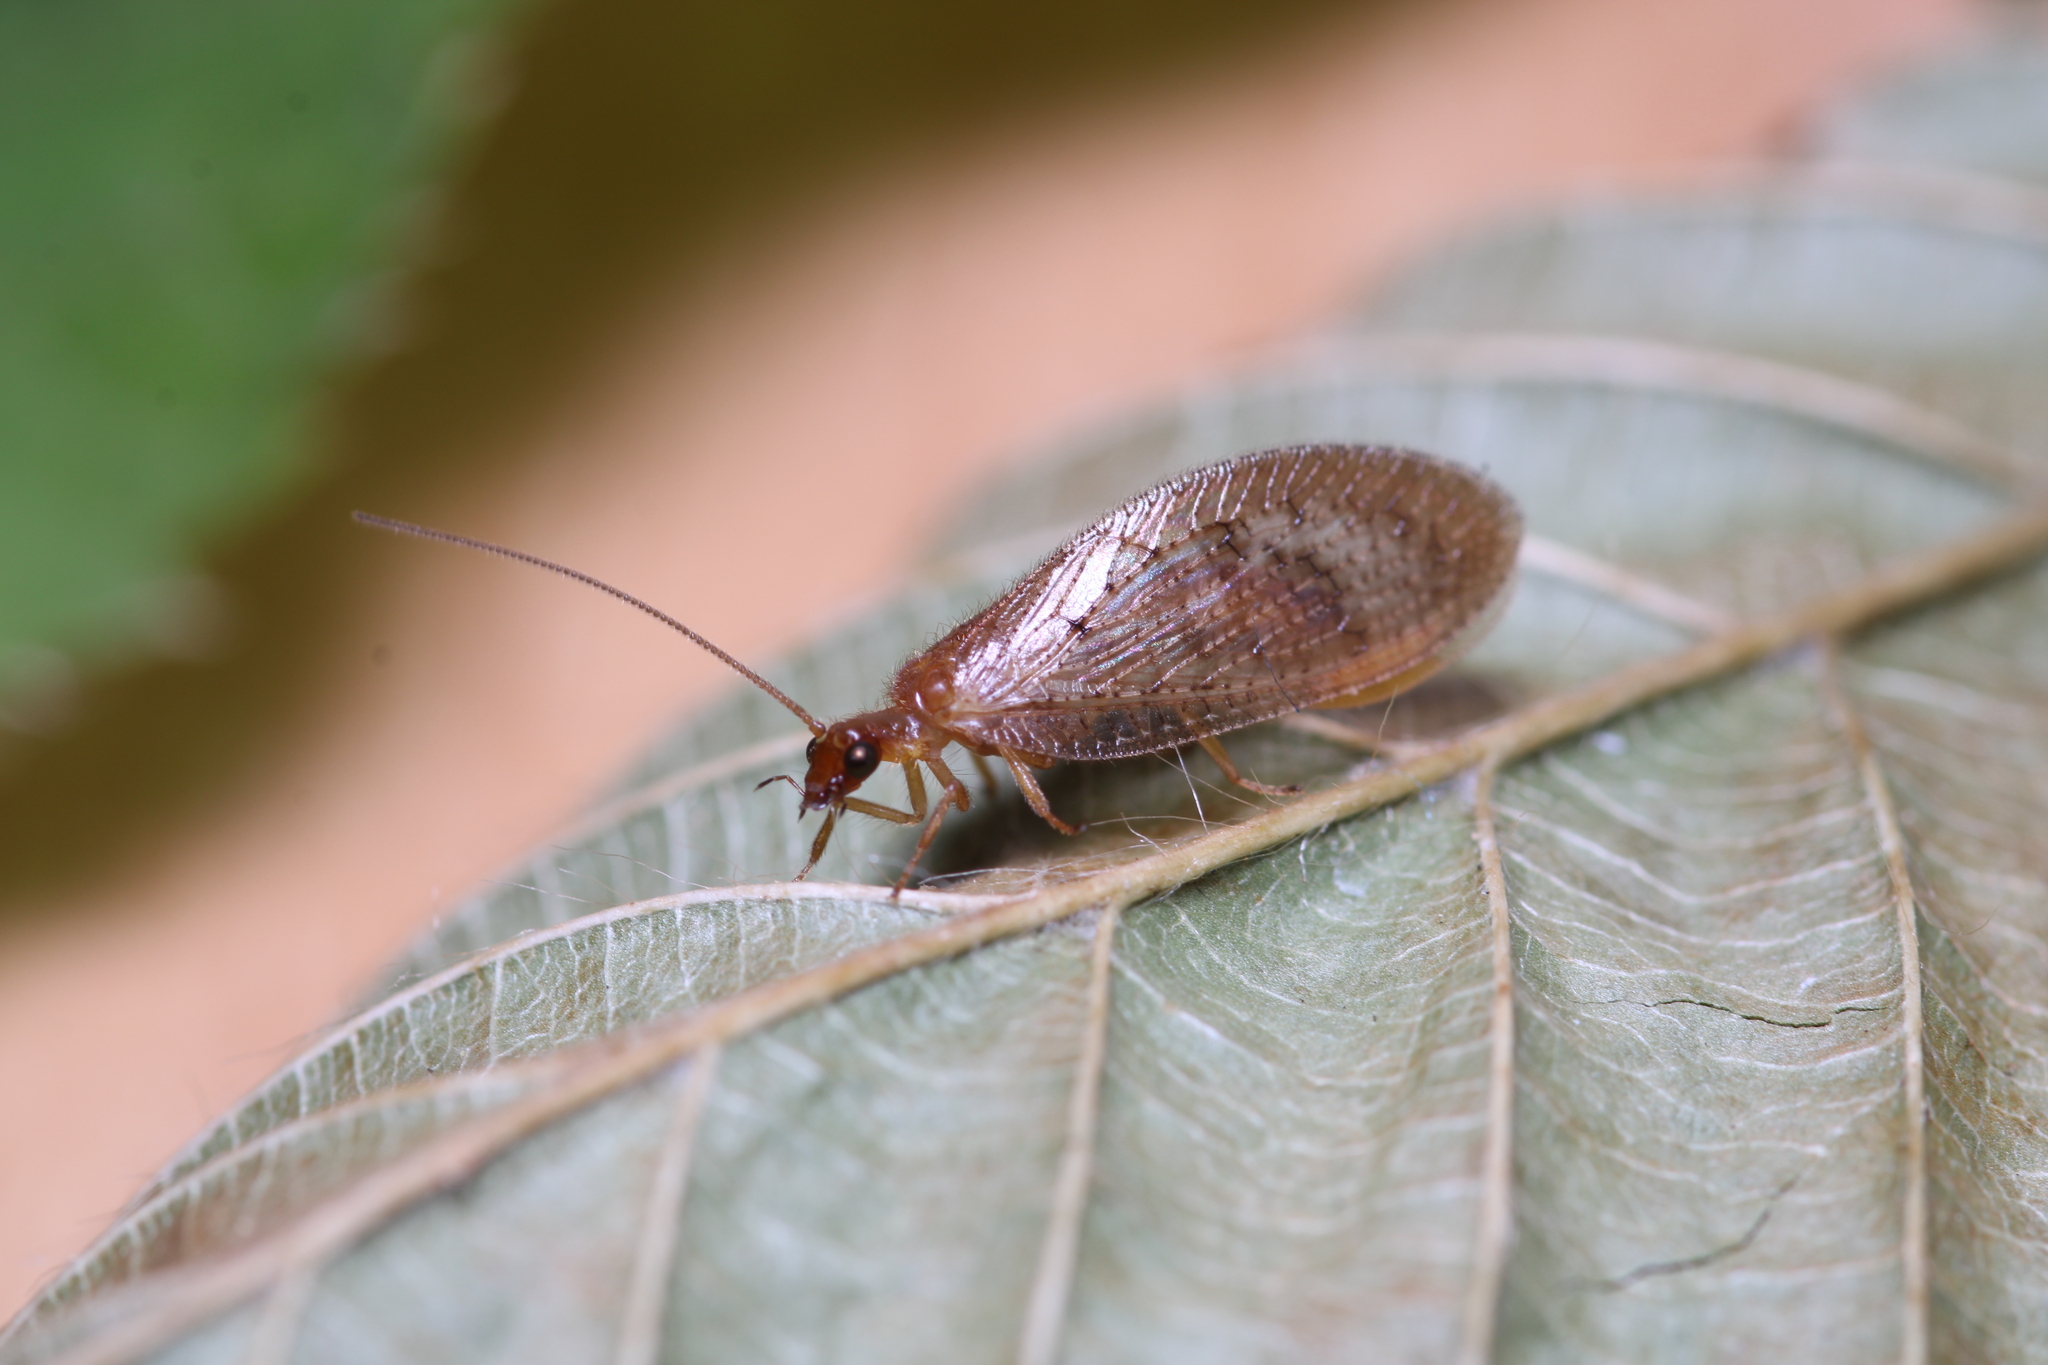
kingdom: Animalia
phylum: Arthropoda
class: Insecta
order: Neuroptera
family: Hemerobiidae
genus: Hemerobius
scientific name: Hemerobius stigma
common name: Brown pine lacewing
